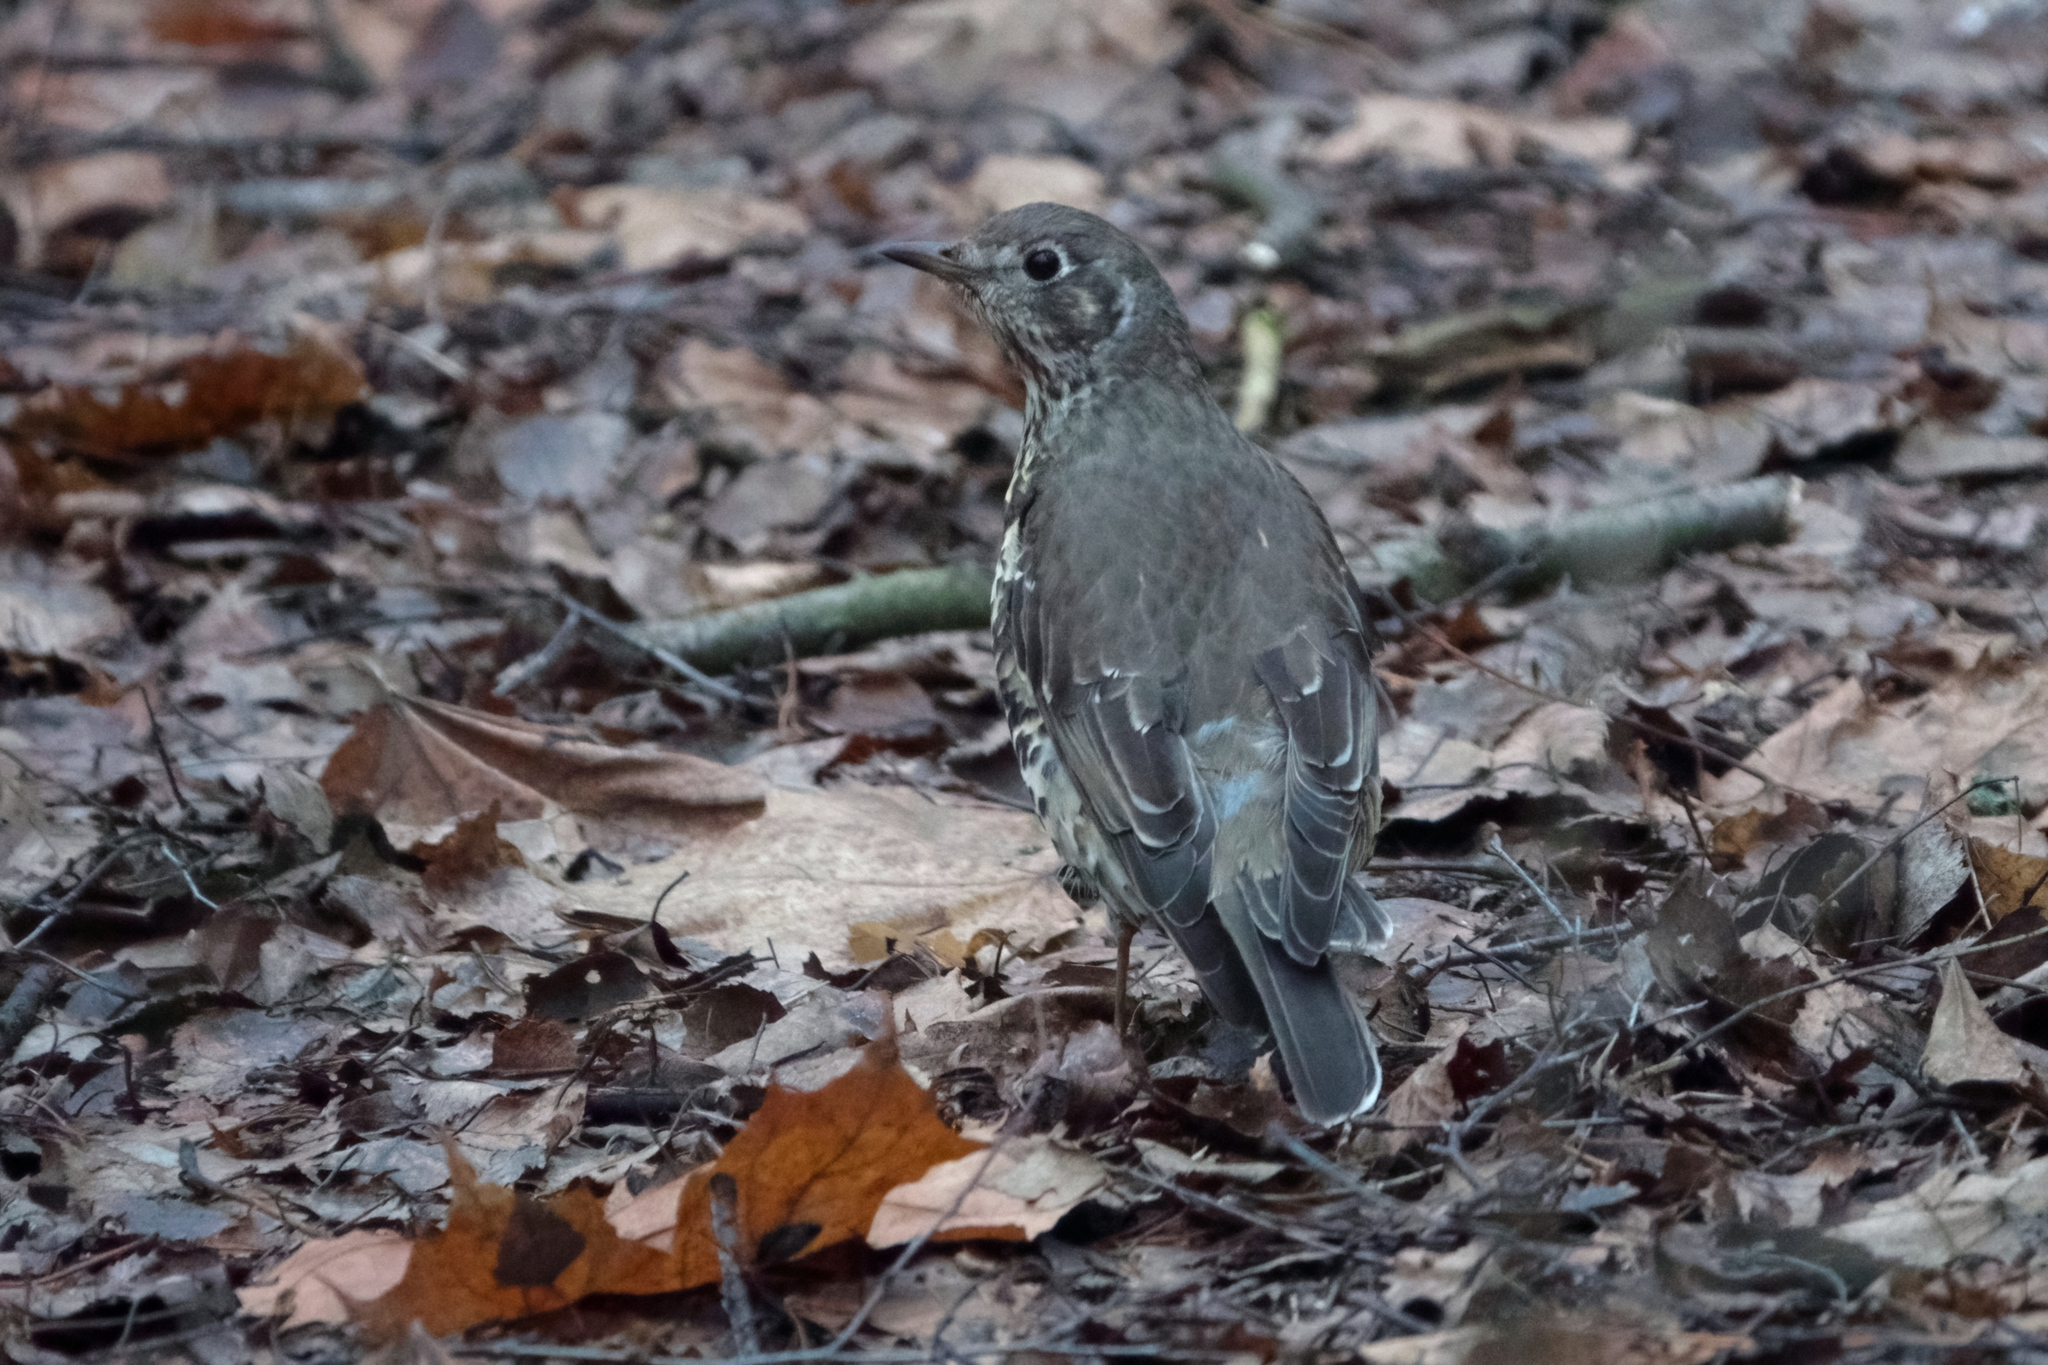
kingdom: Animalia
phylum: Chordata
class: Aves
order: Passeriformes
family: Turdidae
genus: Turdus
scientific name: Turdus viscivorus
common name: Mistle thrush
